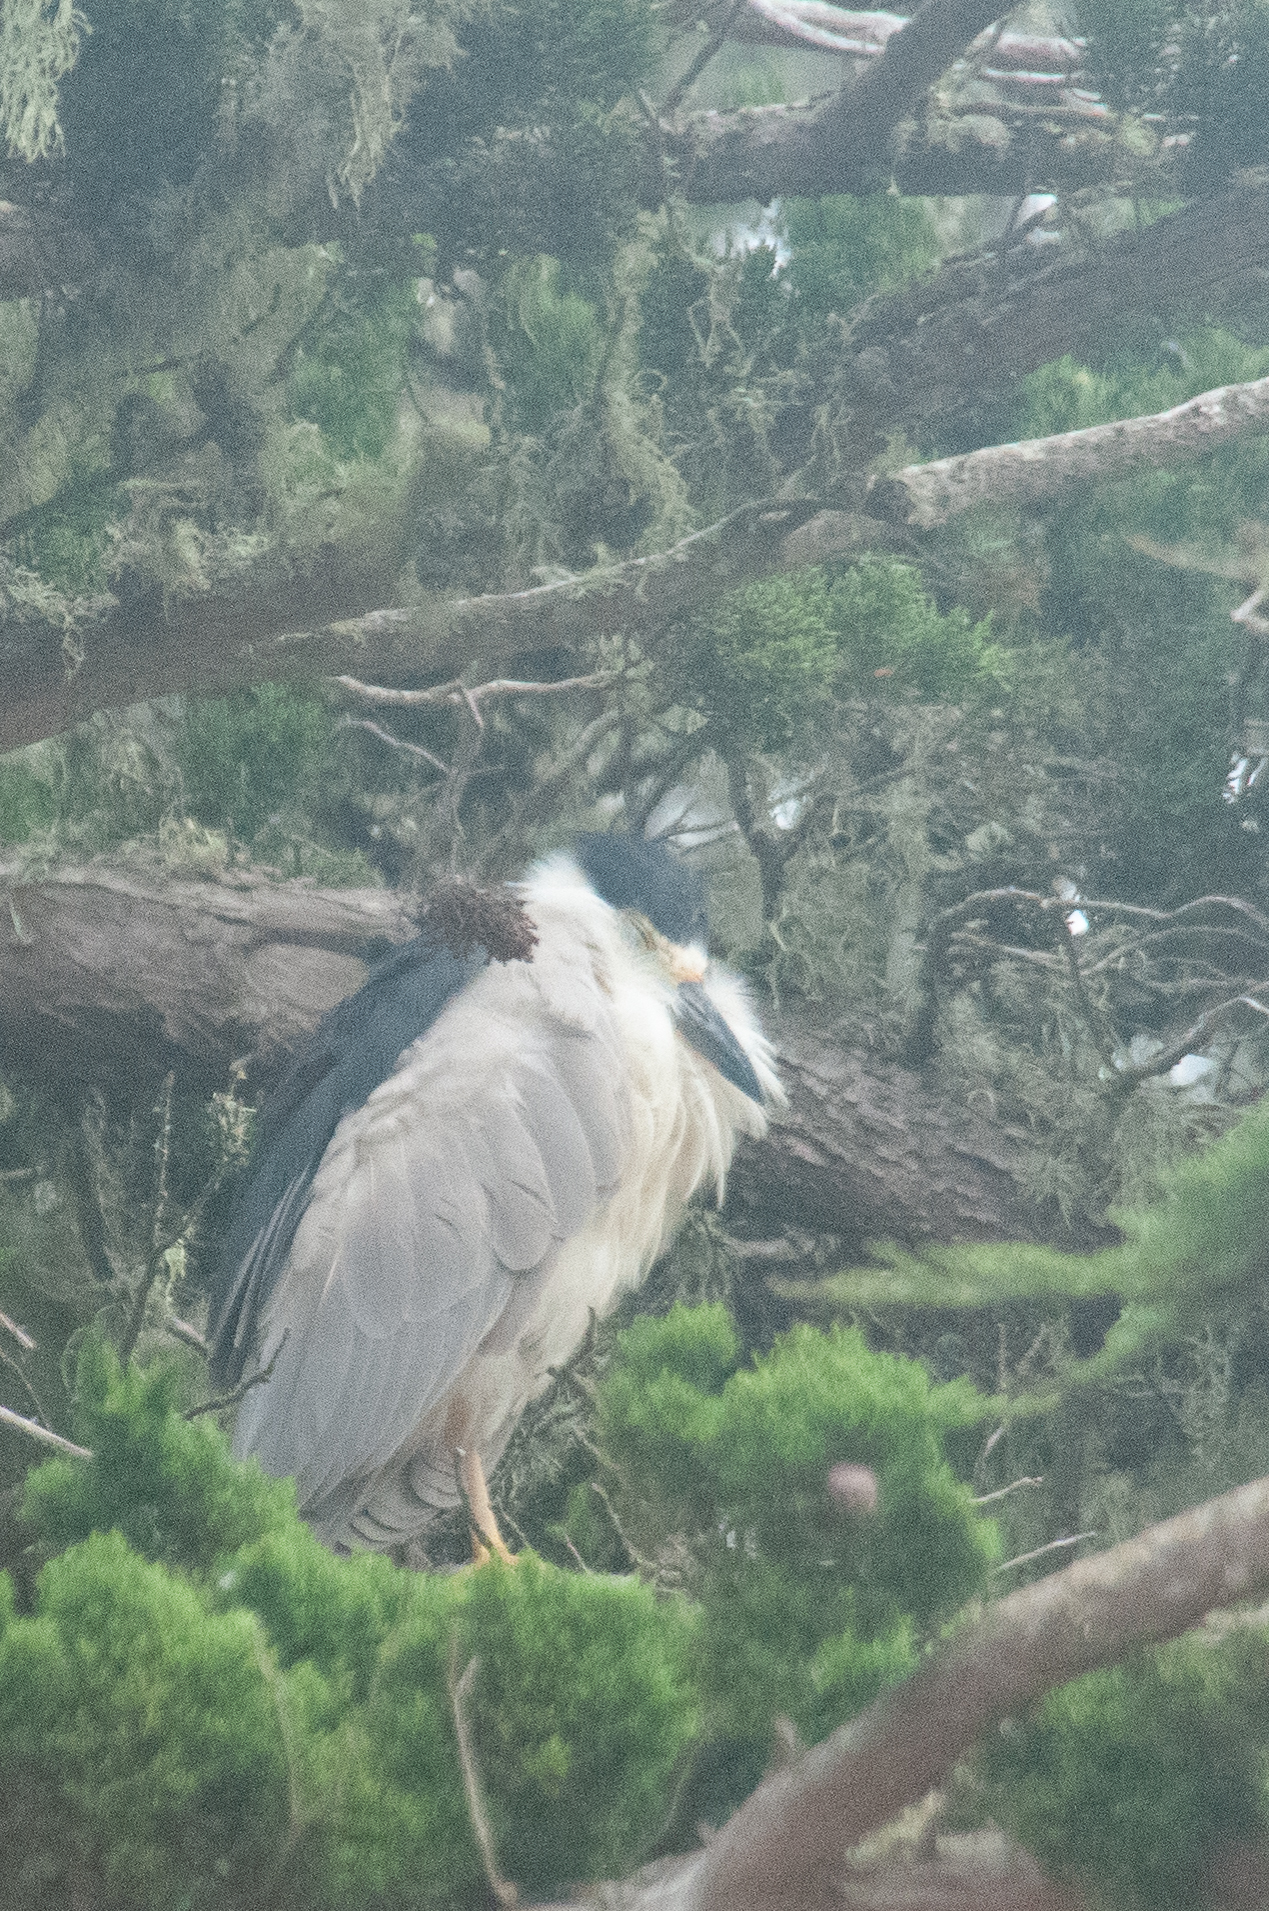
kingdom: Animalia
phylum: Chordata
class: Aves
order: Pelecaniformes
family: Ardeidae
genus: Nycticorax
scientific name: Nycticorax nycticorax
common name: Black-crowned night heron
